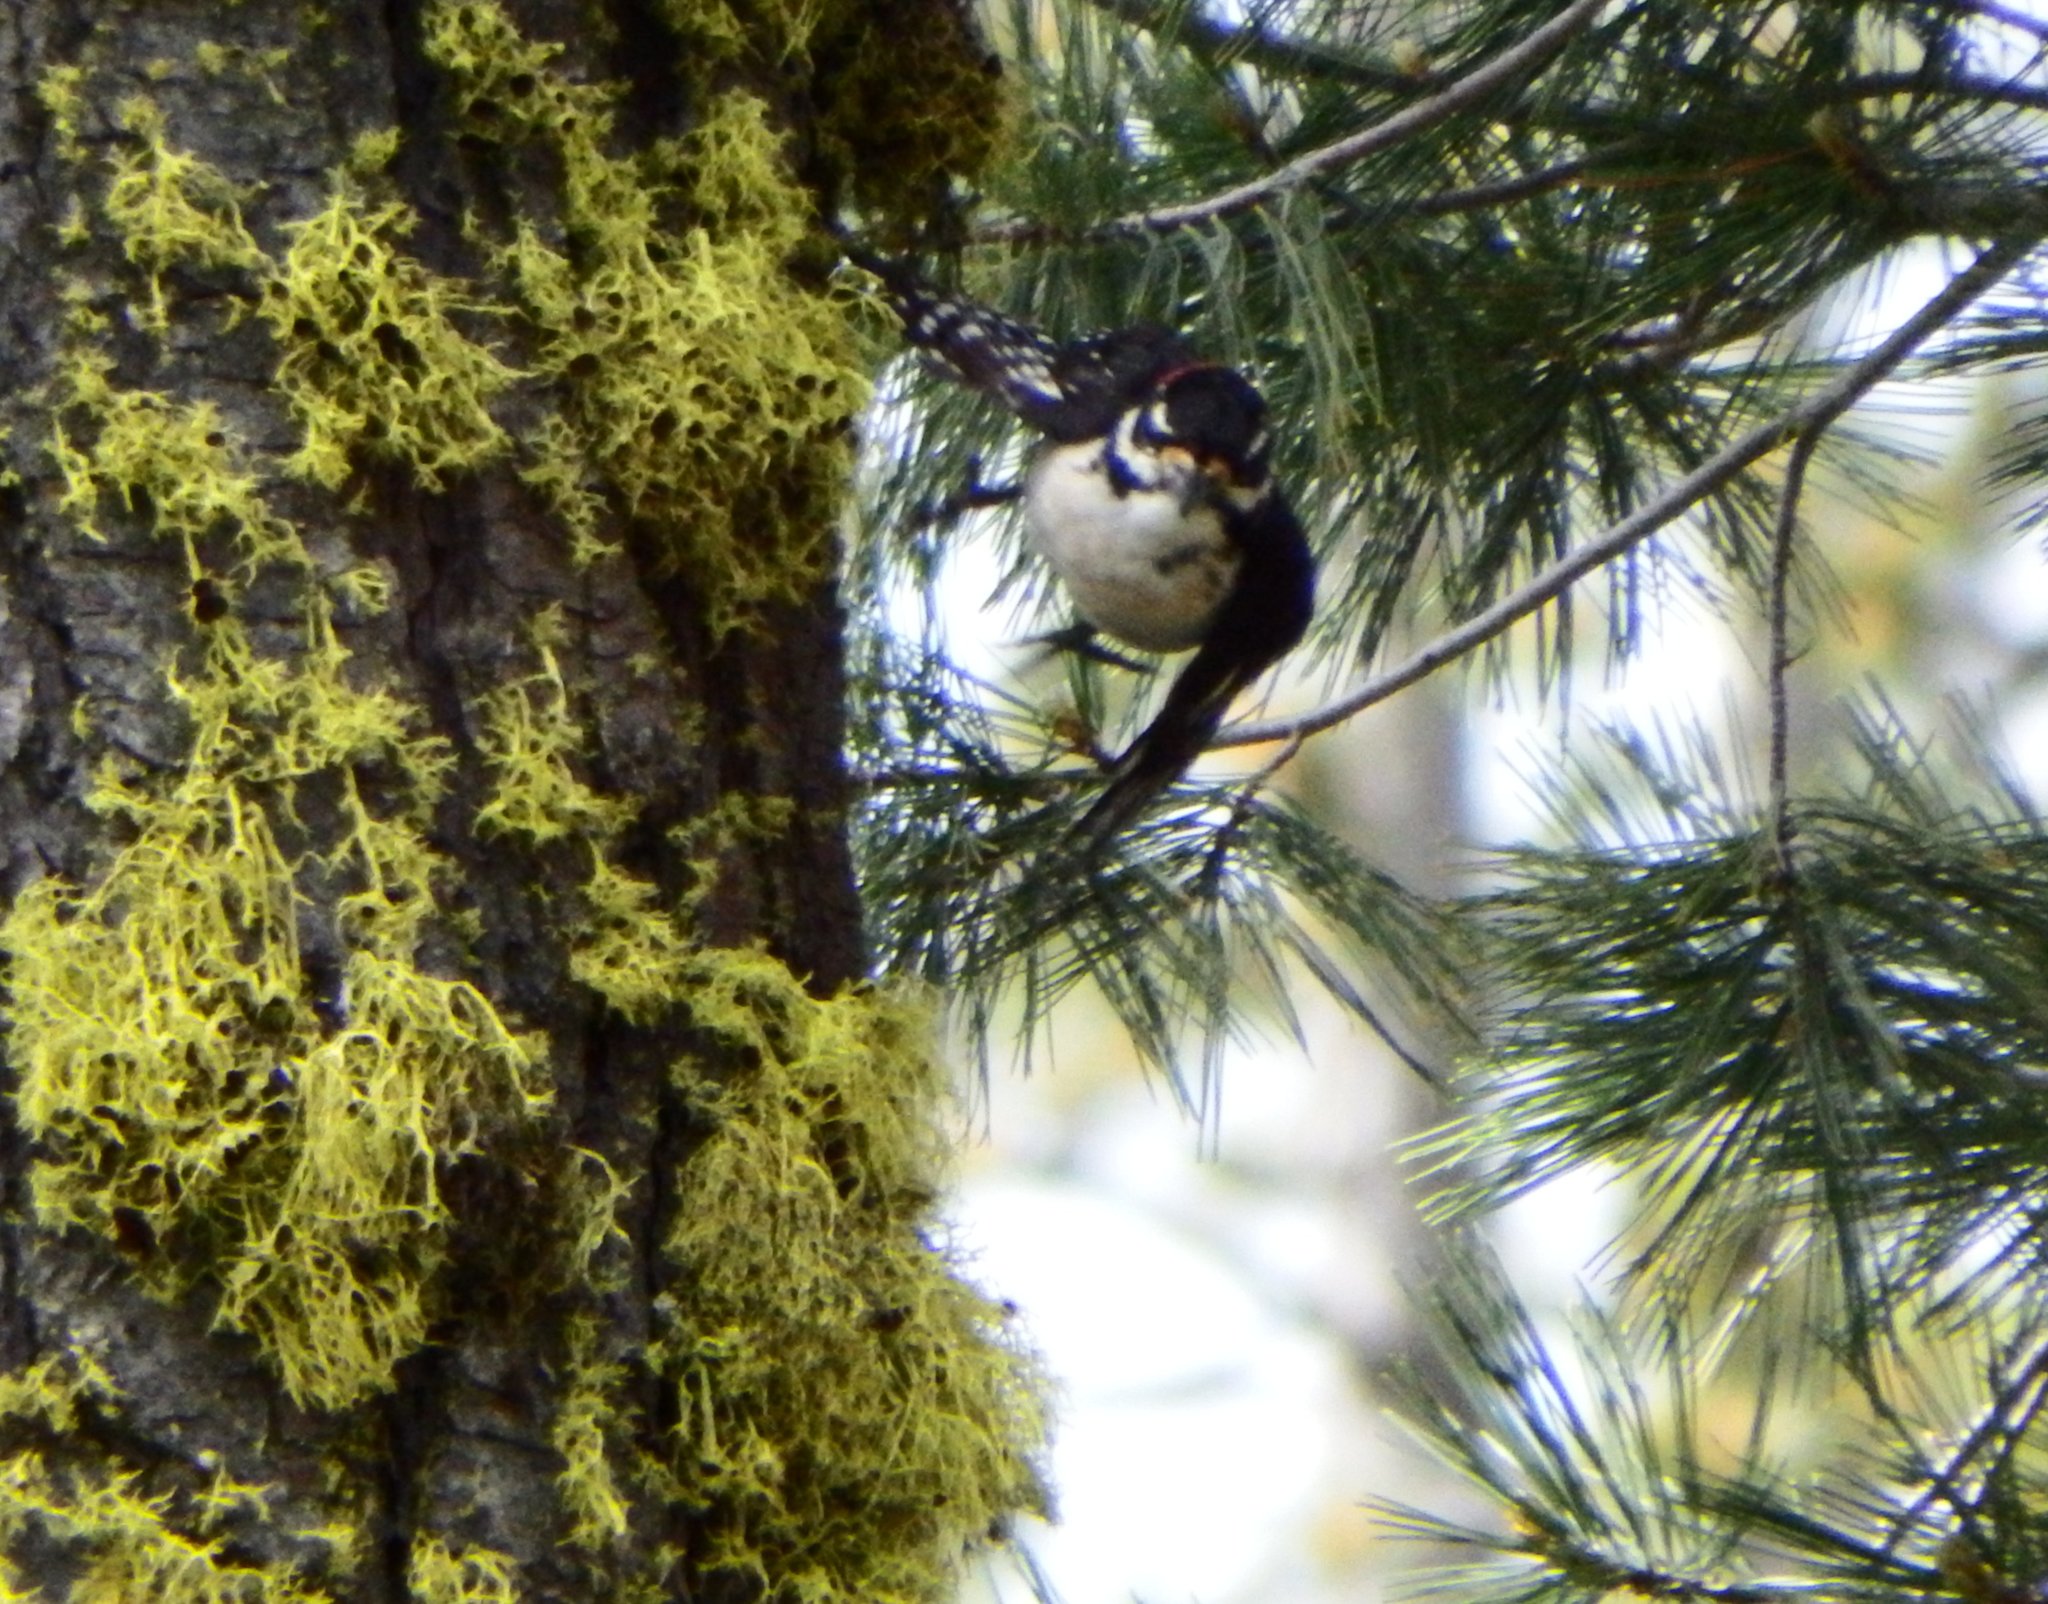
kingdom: Animalia
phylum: Chordata
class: Aves
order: Piciformes
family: Picidae
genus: Leuconotopicus
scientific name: Leuconotopicus villosus
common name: Hairy woodpecker
